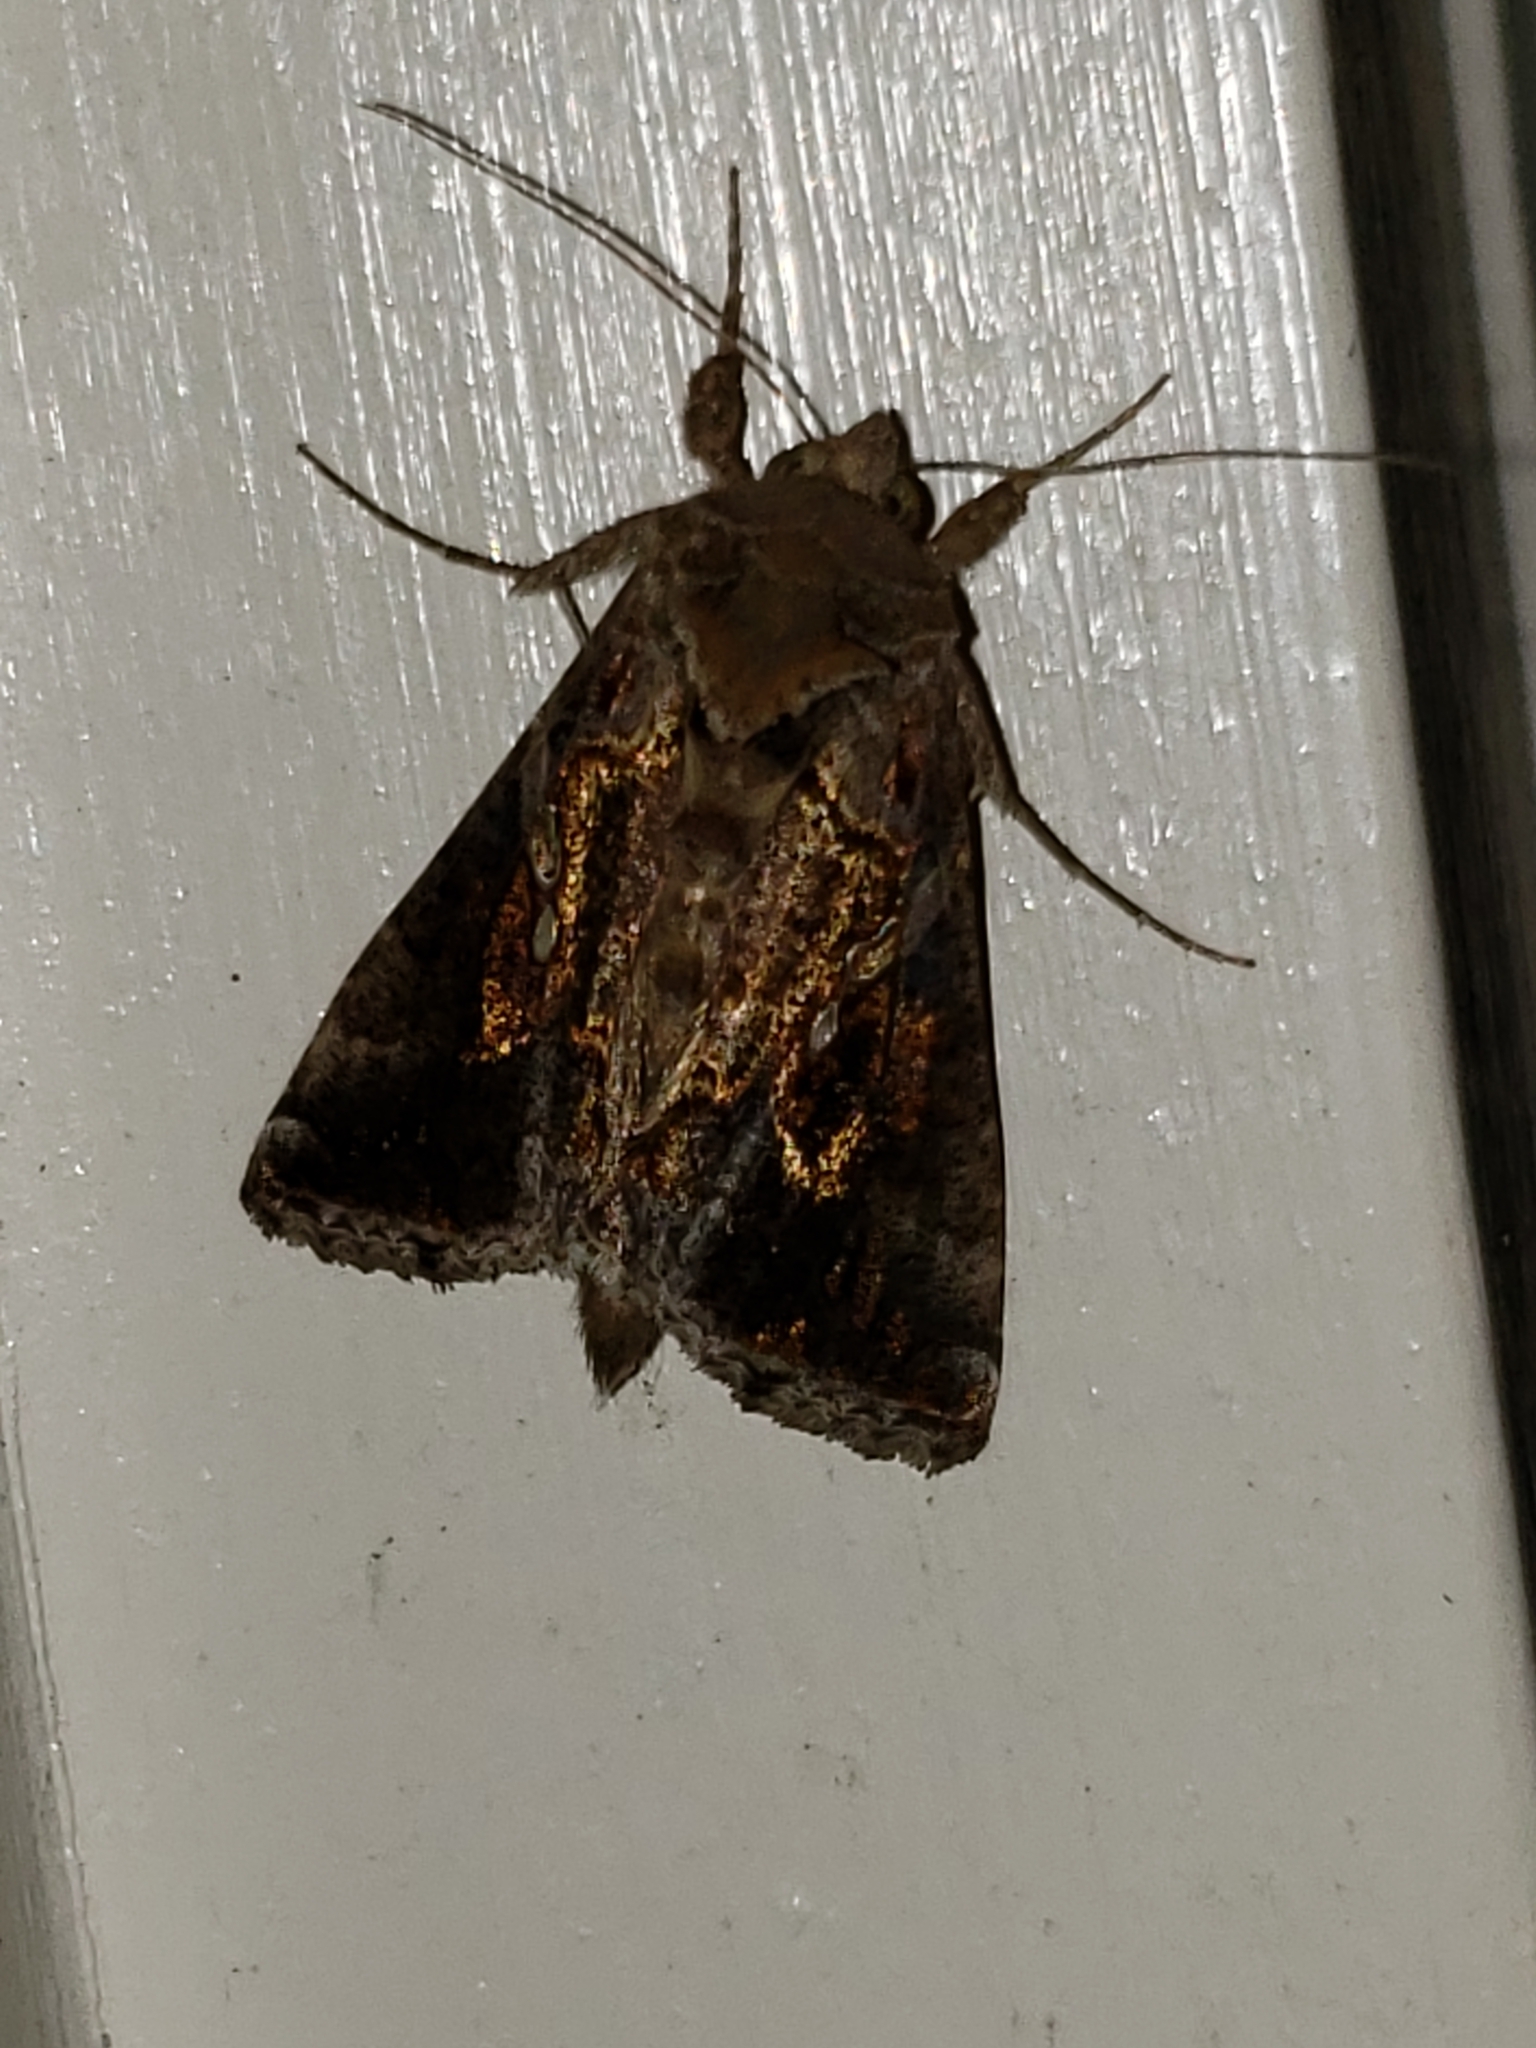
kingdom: Animalia
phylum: Arthropoda
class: Insecta
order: Lepidoptera
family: Noctuidae
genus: Chrysodeixis
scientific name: Chrysodeixis includens
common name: Cutworm moth
